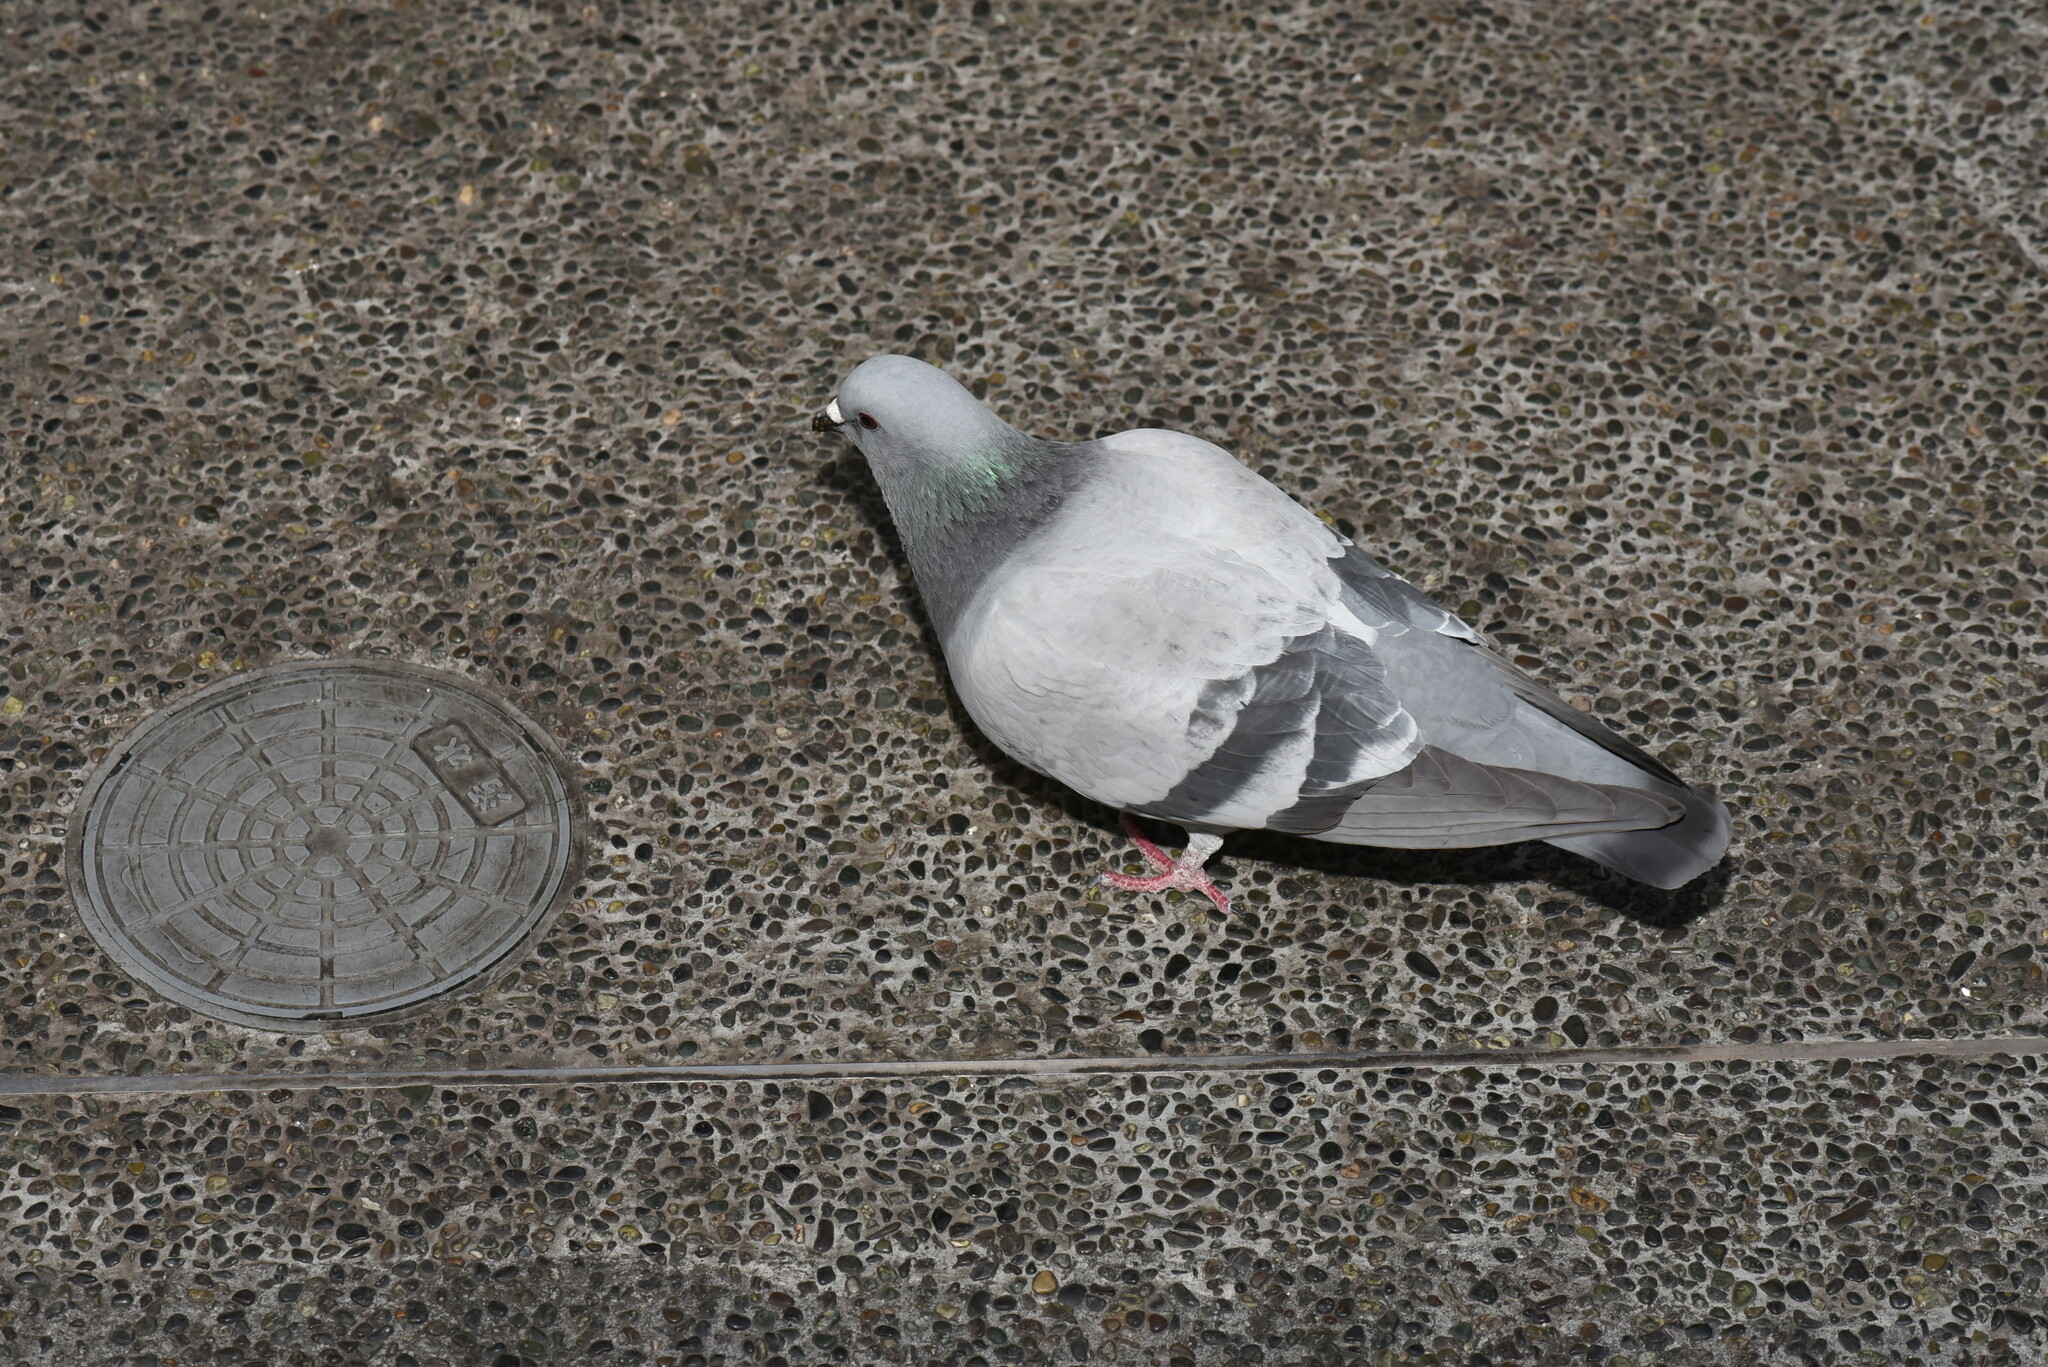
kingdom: Animalia
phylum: Chordata
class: Aves
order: Columbiformes
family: Columbidae
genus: Columba
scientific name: Columba livia
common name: Rock pigeon
